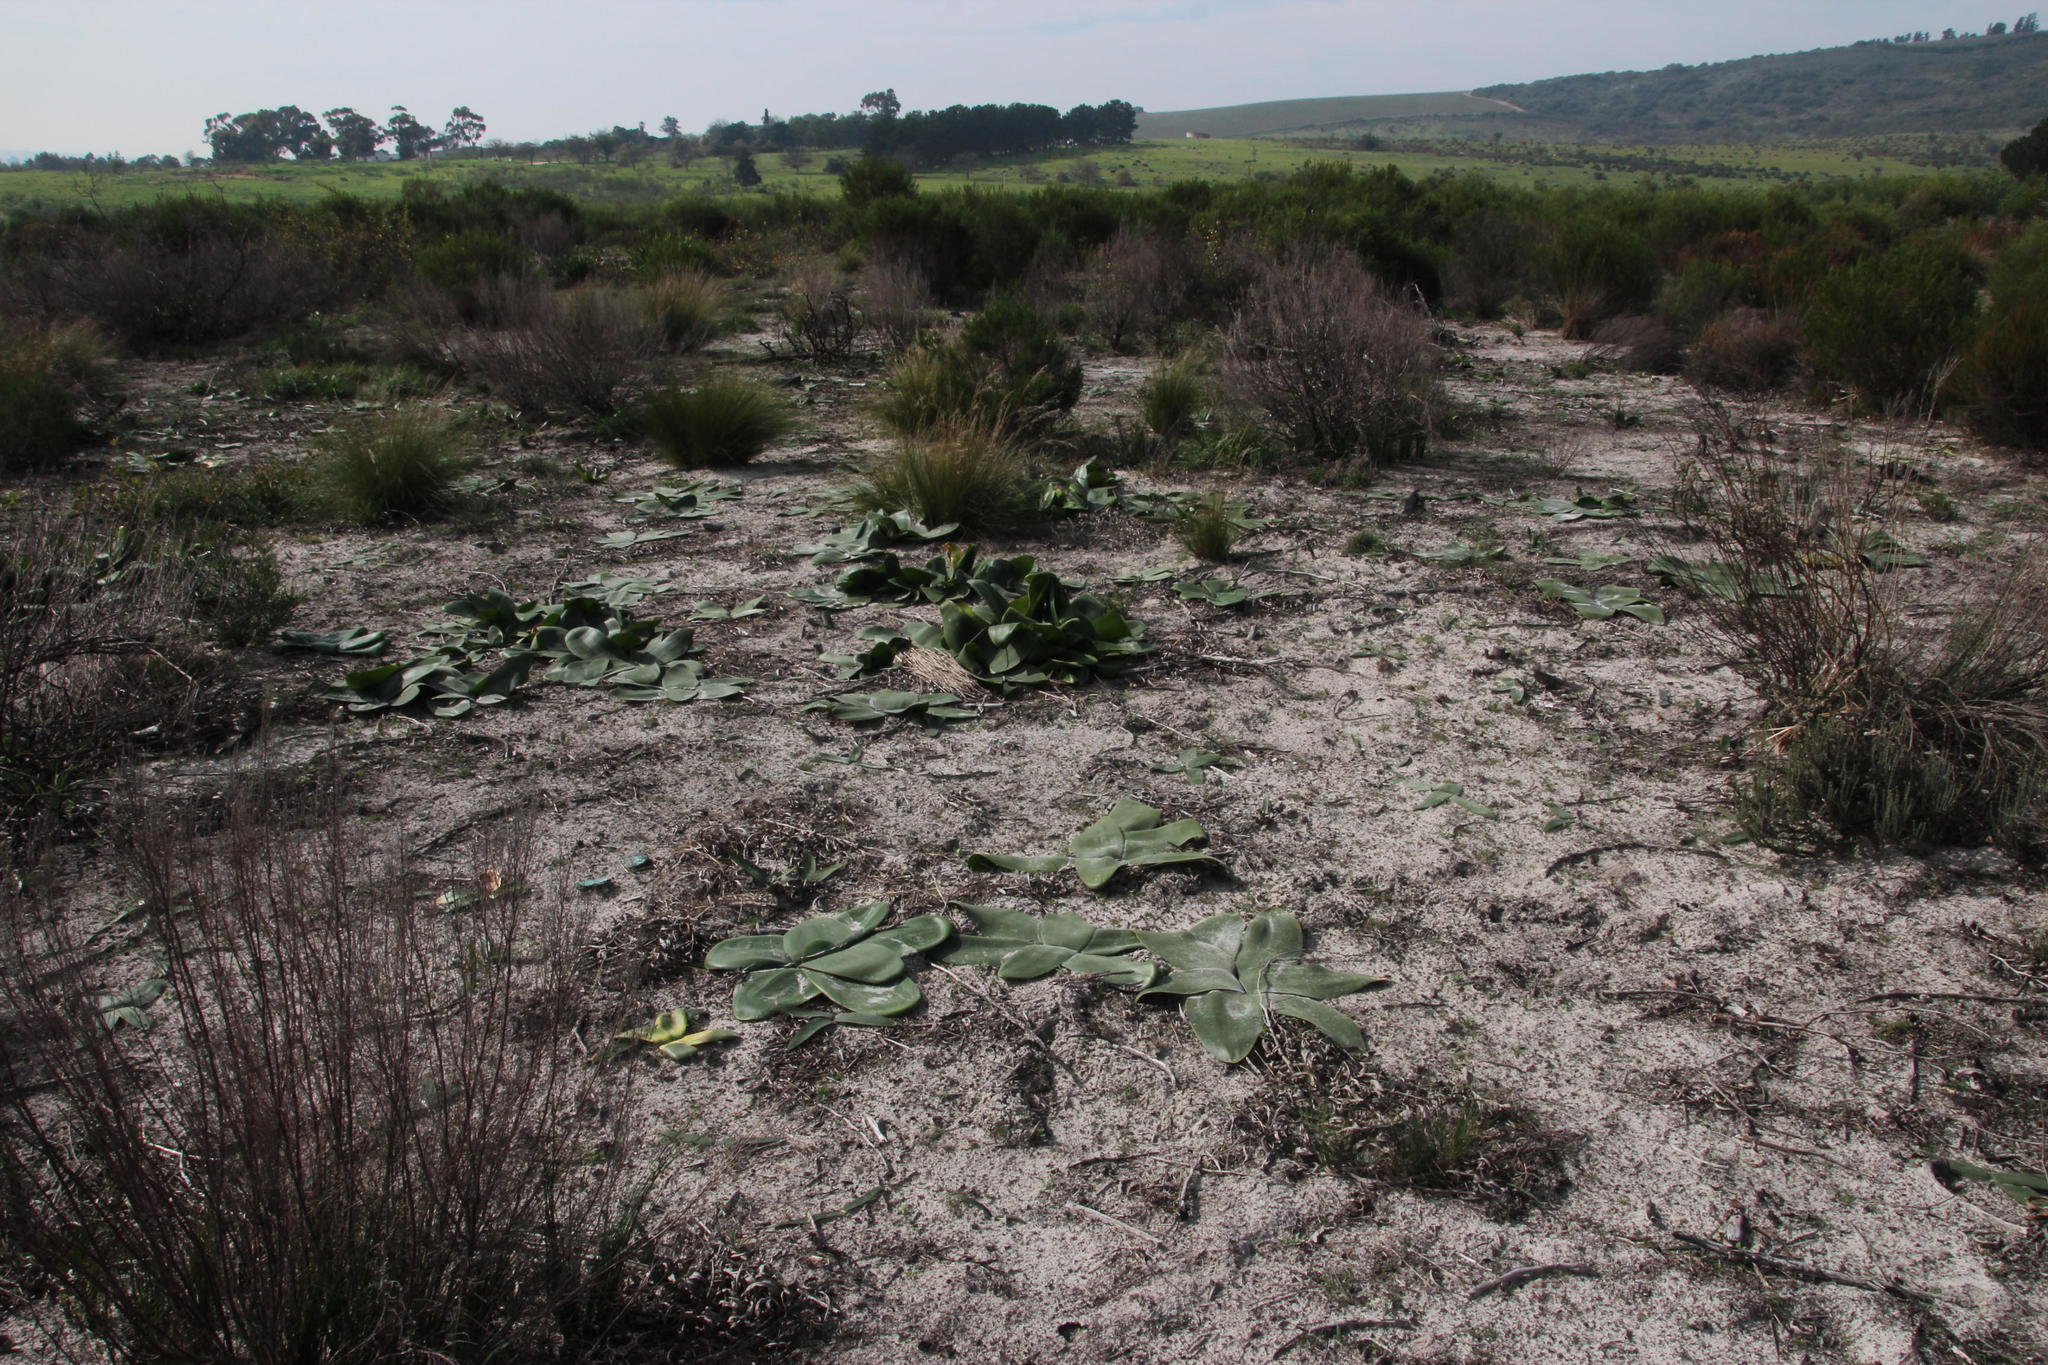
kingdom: Plantae
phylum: Tracheophyta
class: Liliopsida
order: Asparagales
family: Amaryllidaceae
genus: Brunsvigia
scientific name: Brunsvigia orientalis
